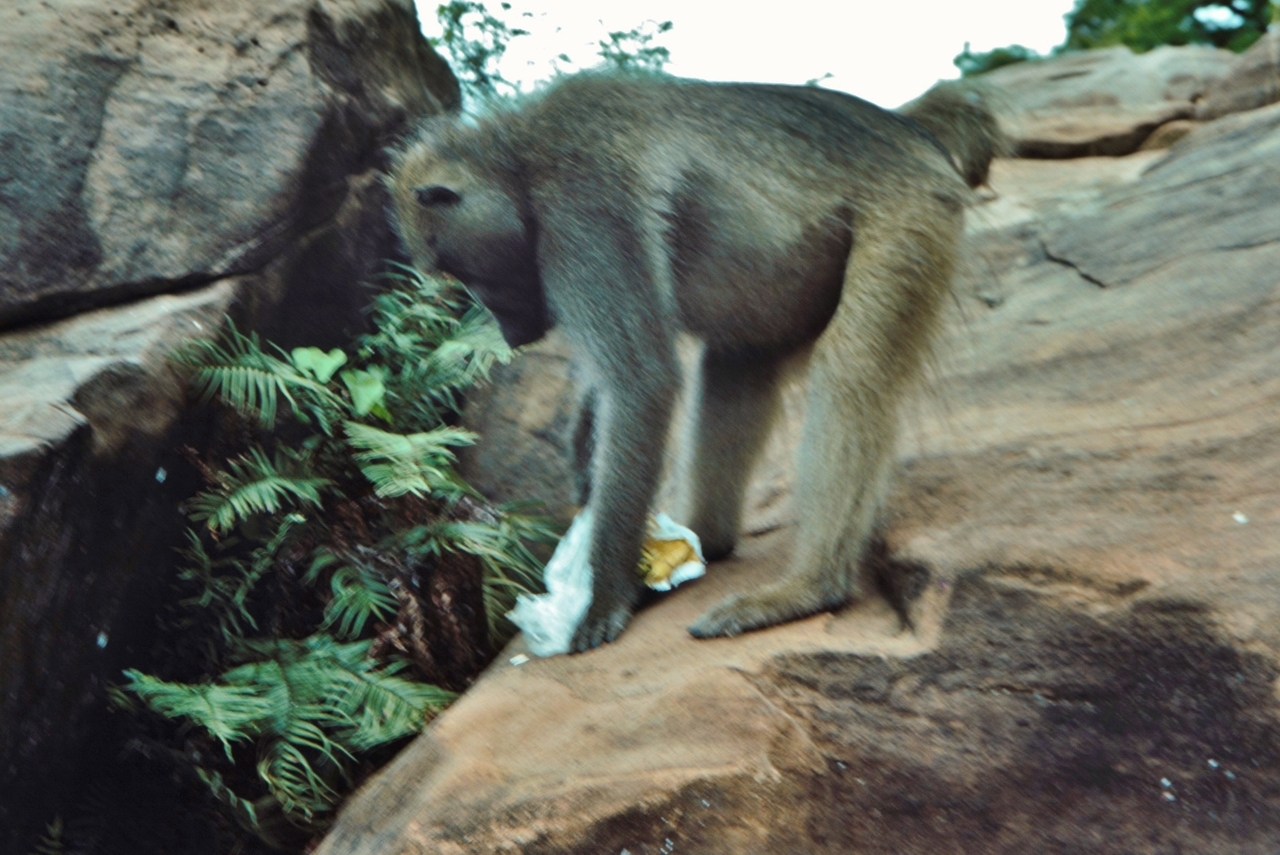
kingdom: Animalia
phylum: Chordata
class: Mammalia
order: Primates
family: Cercopithecidae
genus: Papio
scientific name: Papio ursinus
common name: Chacma baboon
